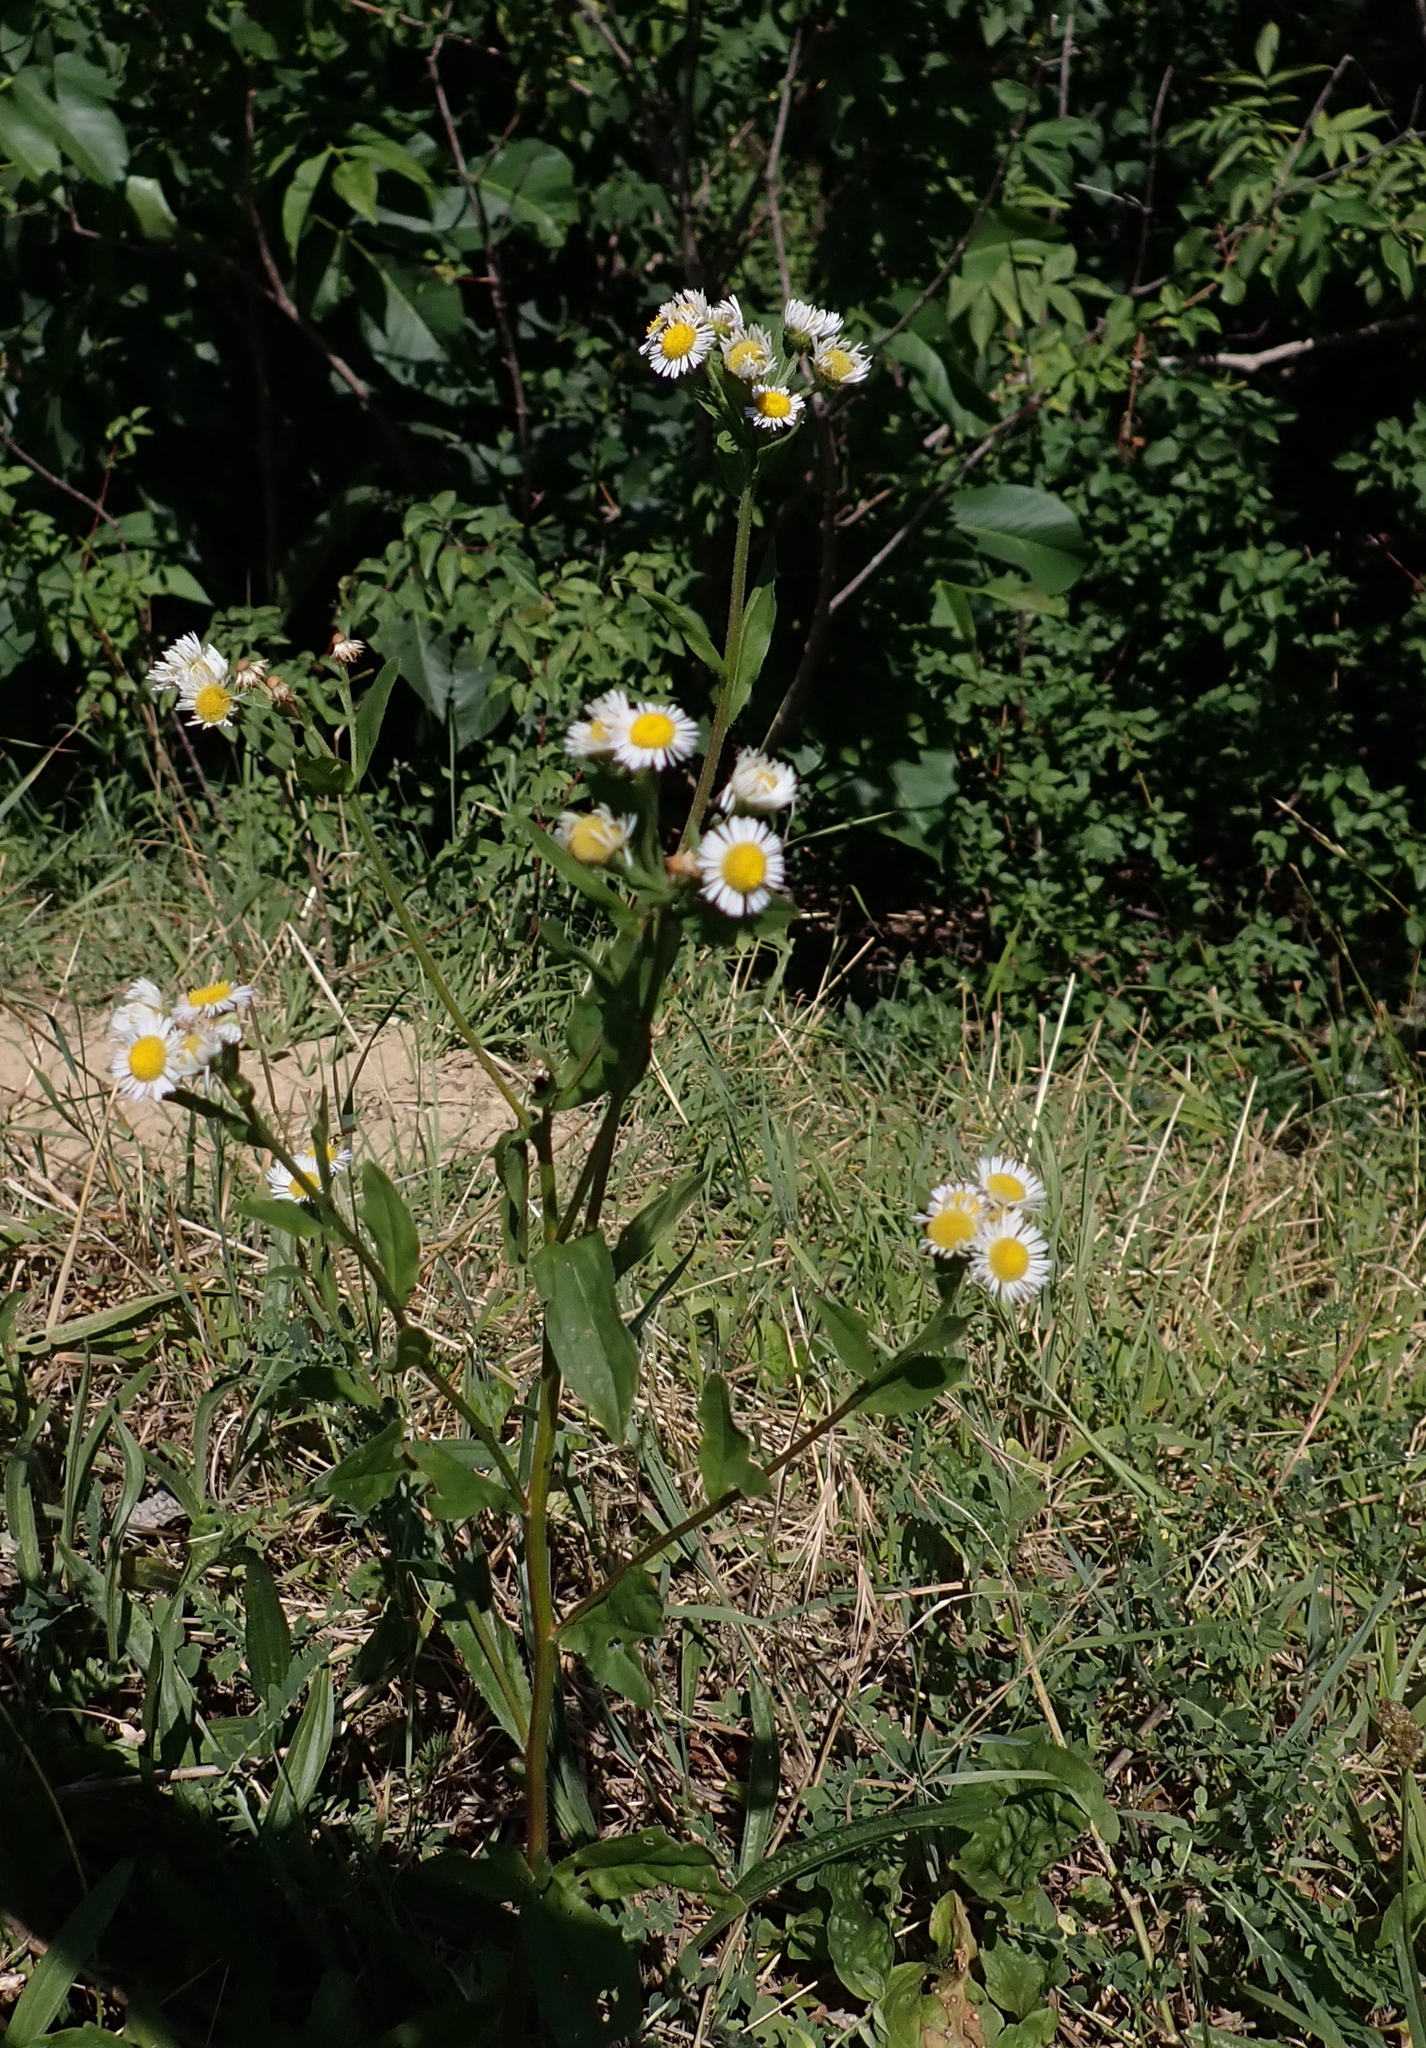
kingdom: Plantae
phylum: Tracheophyta
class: Magnoliopsida
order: Asterales
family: Asteraceae
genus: Erigeron
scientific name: Erigeron strigosus
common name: Common eastern fleabane
